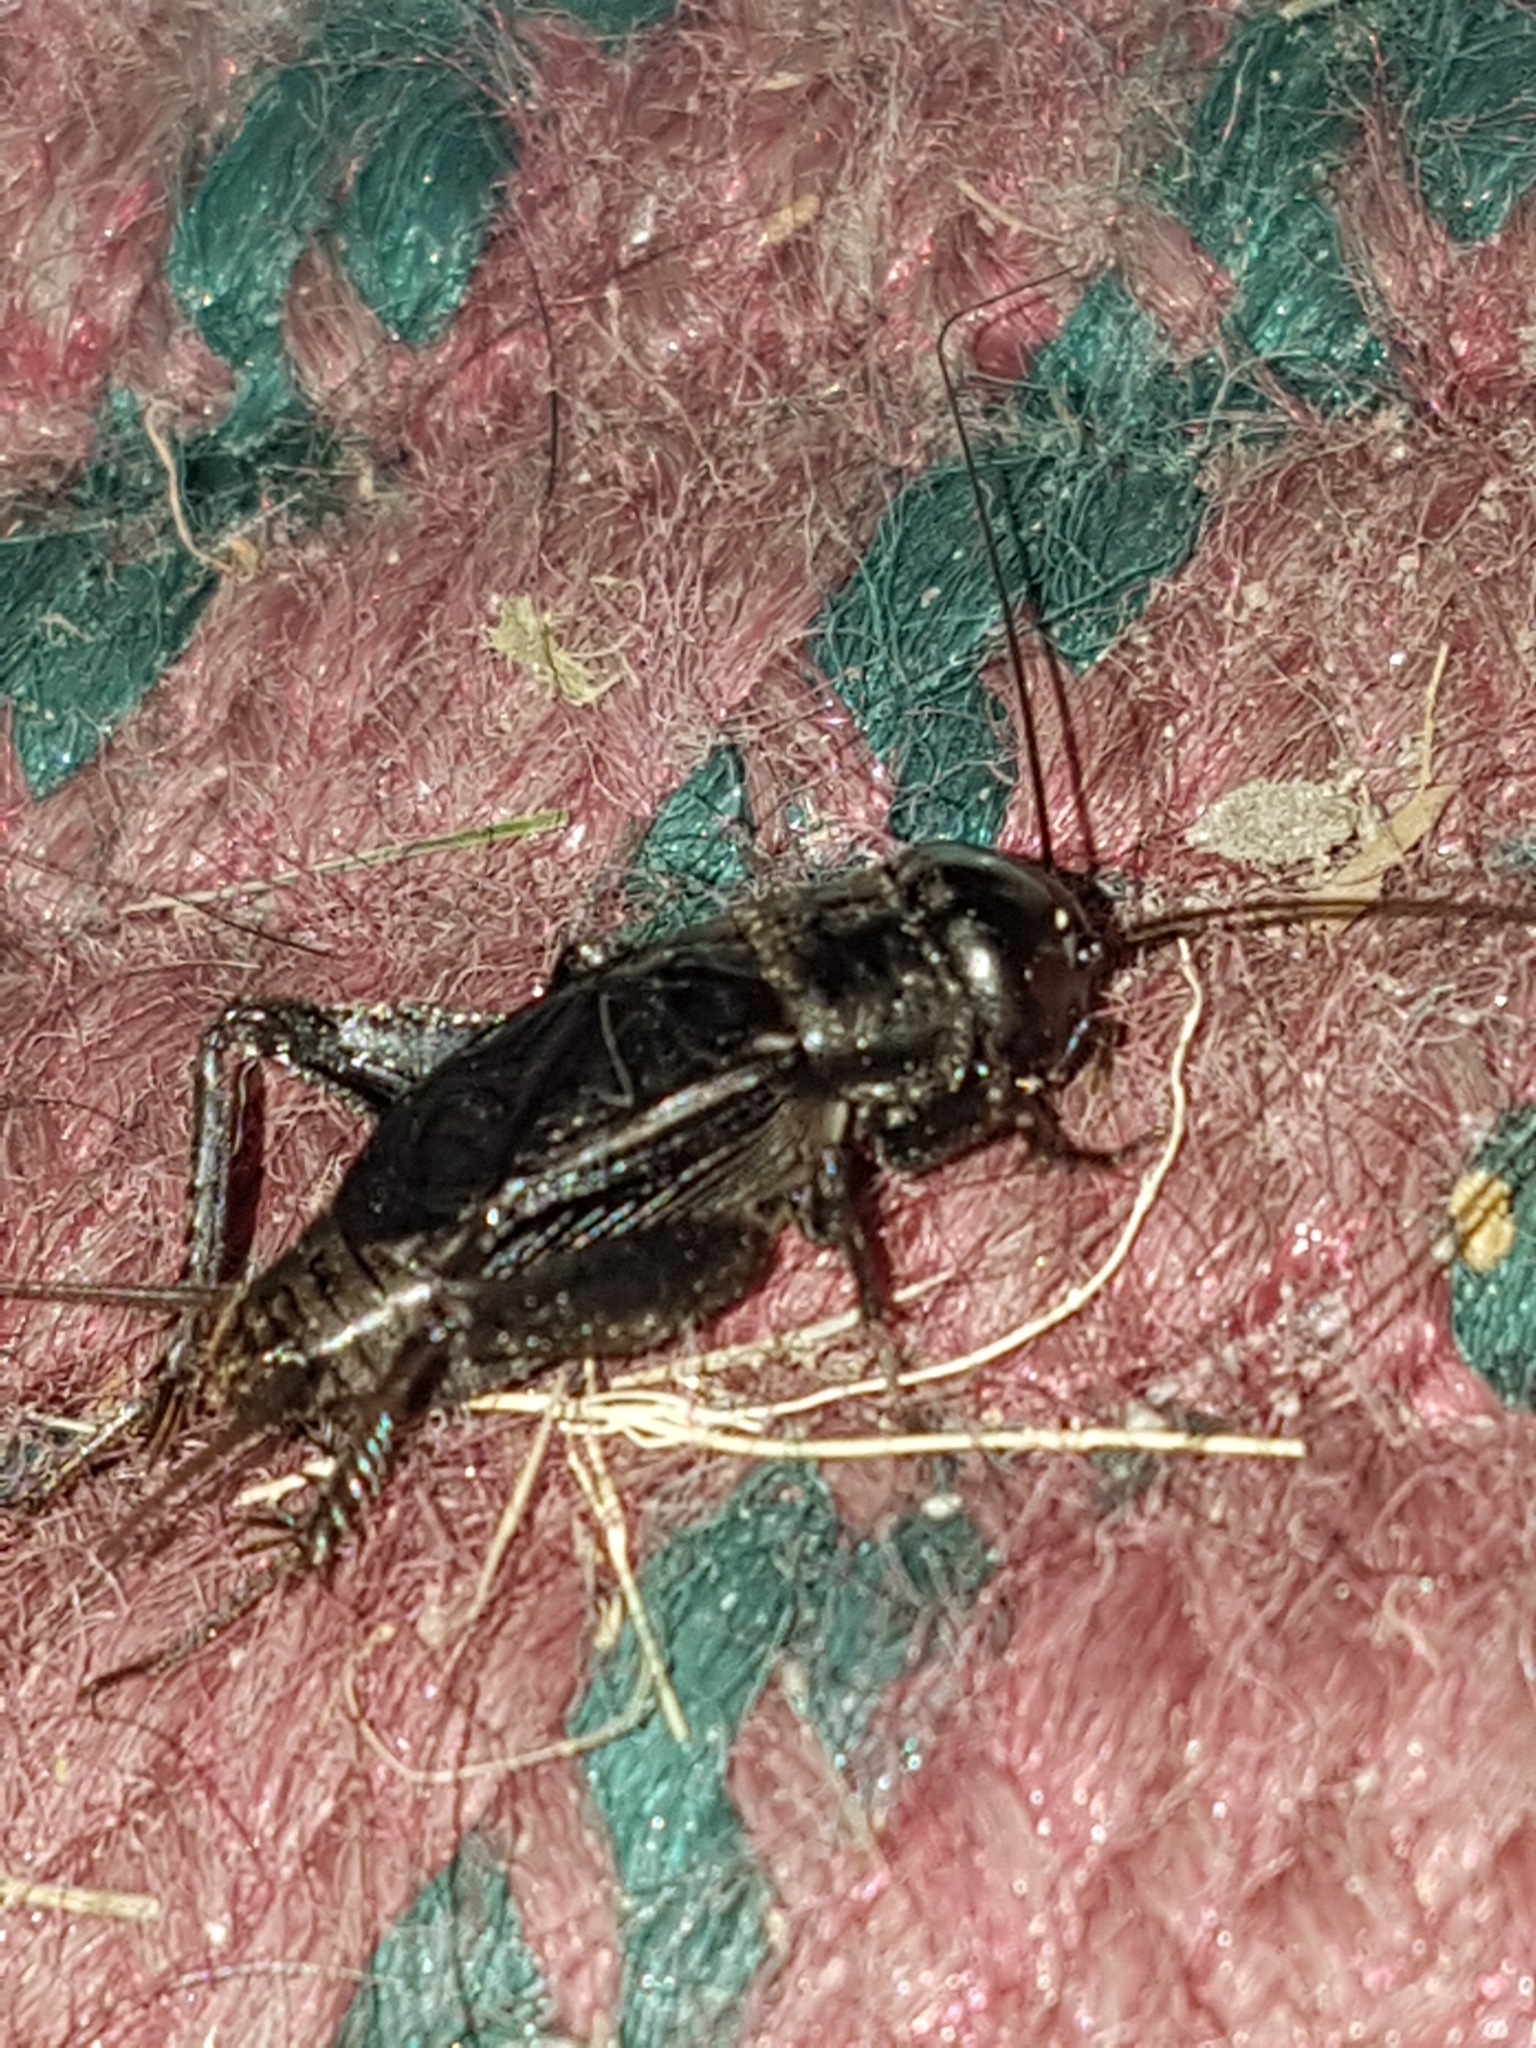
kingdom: Animalia
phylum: Arthropoda
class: Insecta
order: Orthoptera
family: Gryllidae
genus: Gryllus
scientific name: Gryllus pennsylvanicus
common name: Fall field cricket
